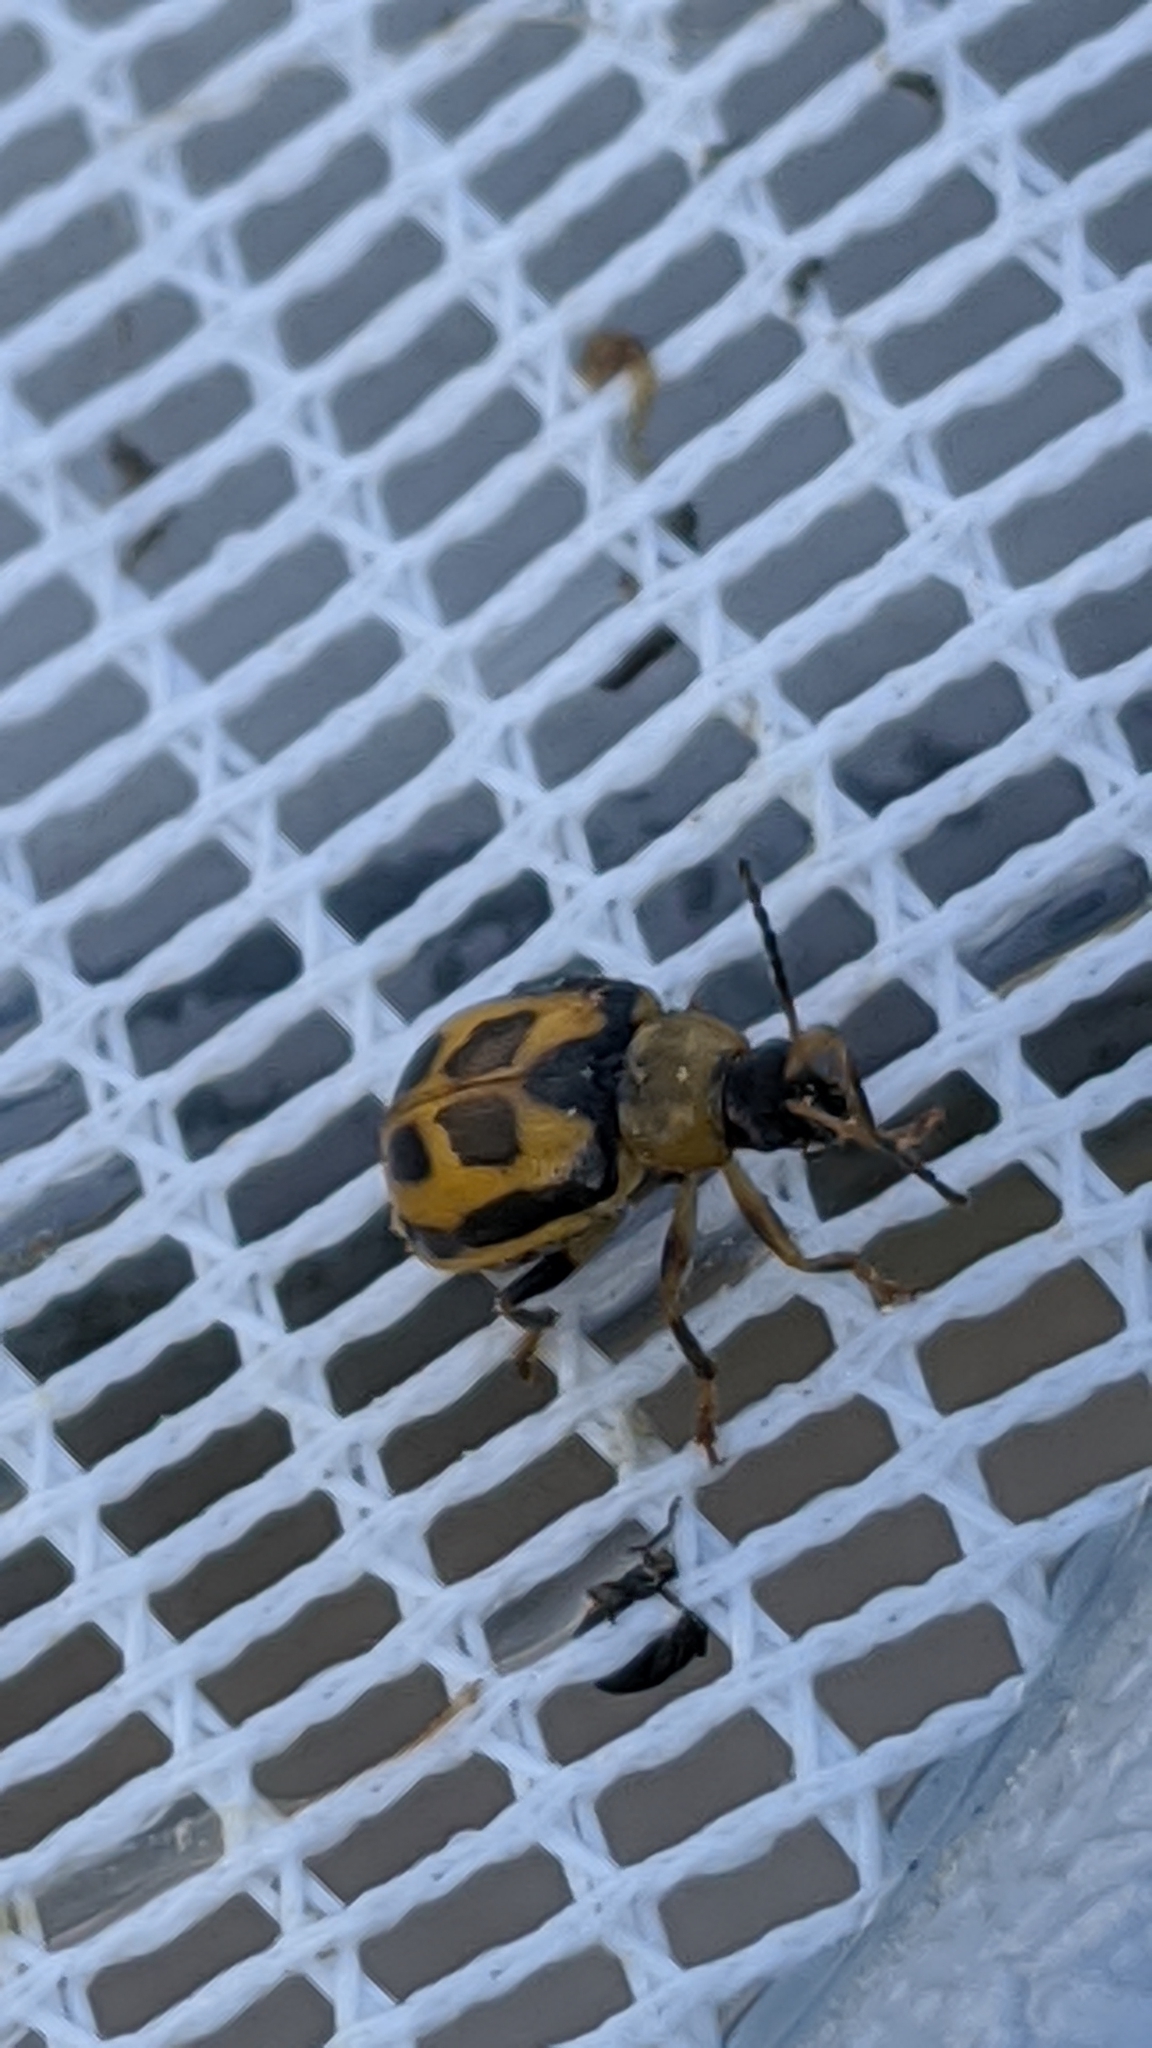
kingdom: Animalia
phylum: Arthropoda
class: Insecta
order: Coleoptera
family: Chrysomelidae
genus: Cerotoma
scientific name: Cerotoma trifurcata
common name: Bean leaf beetle
